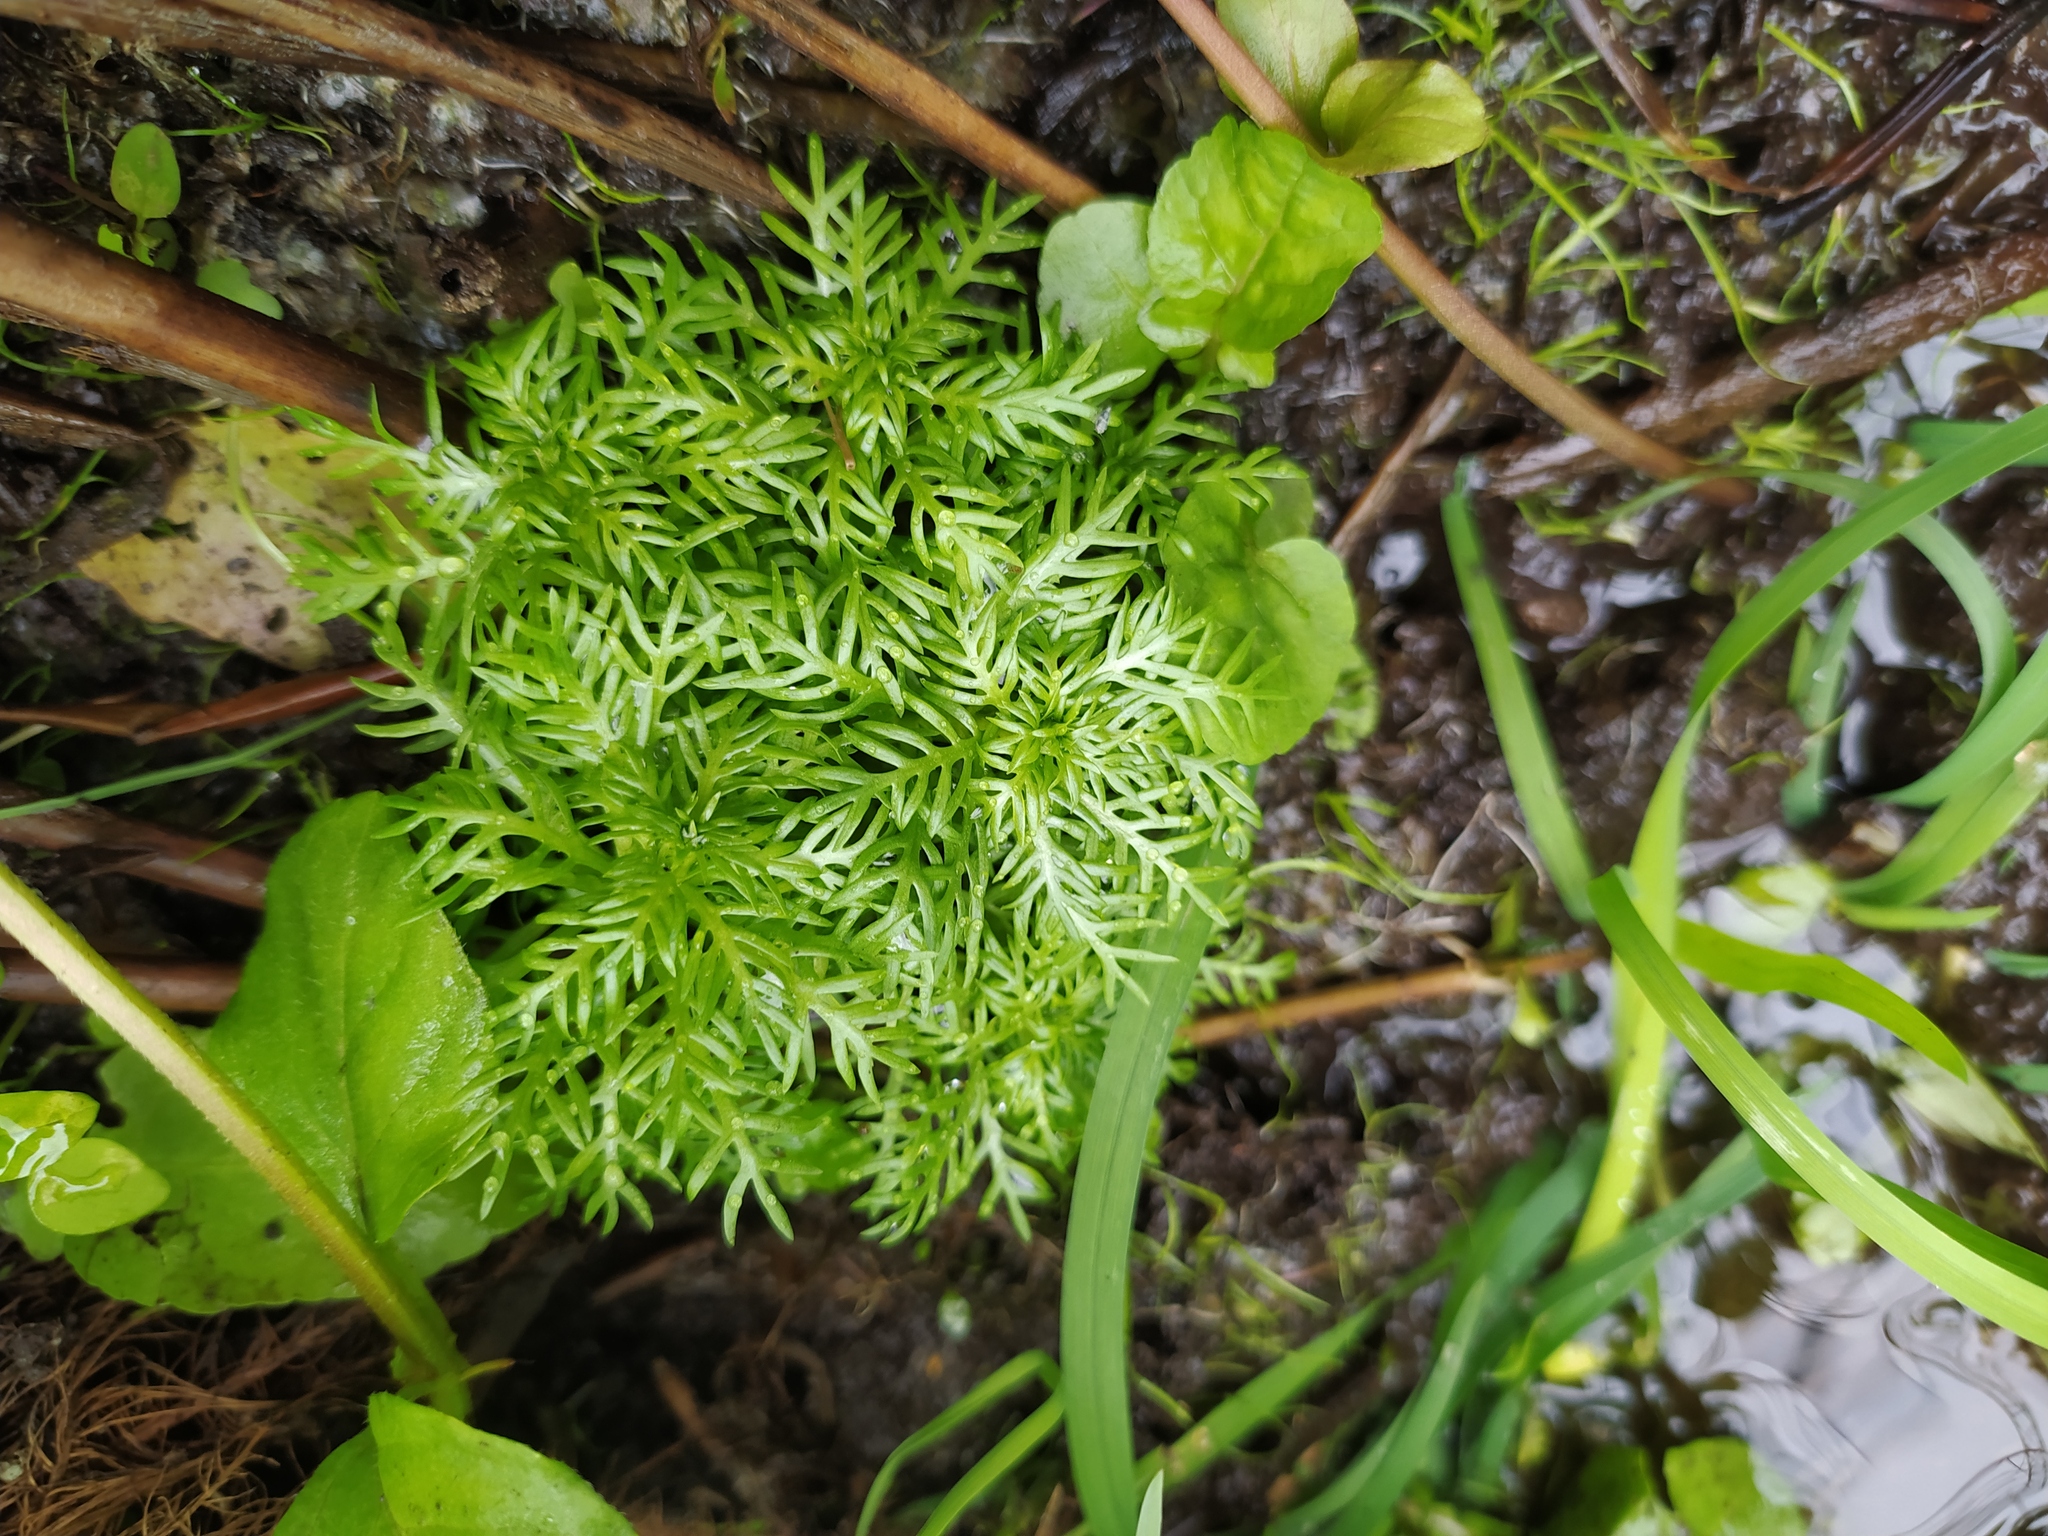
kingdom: Plantae
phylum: Tracheophyta
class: Magnoliopsida
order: Ericales
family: Primulaceae
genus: Hottonia
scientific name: Hottonia palustris
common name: Water-violet
